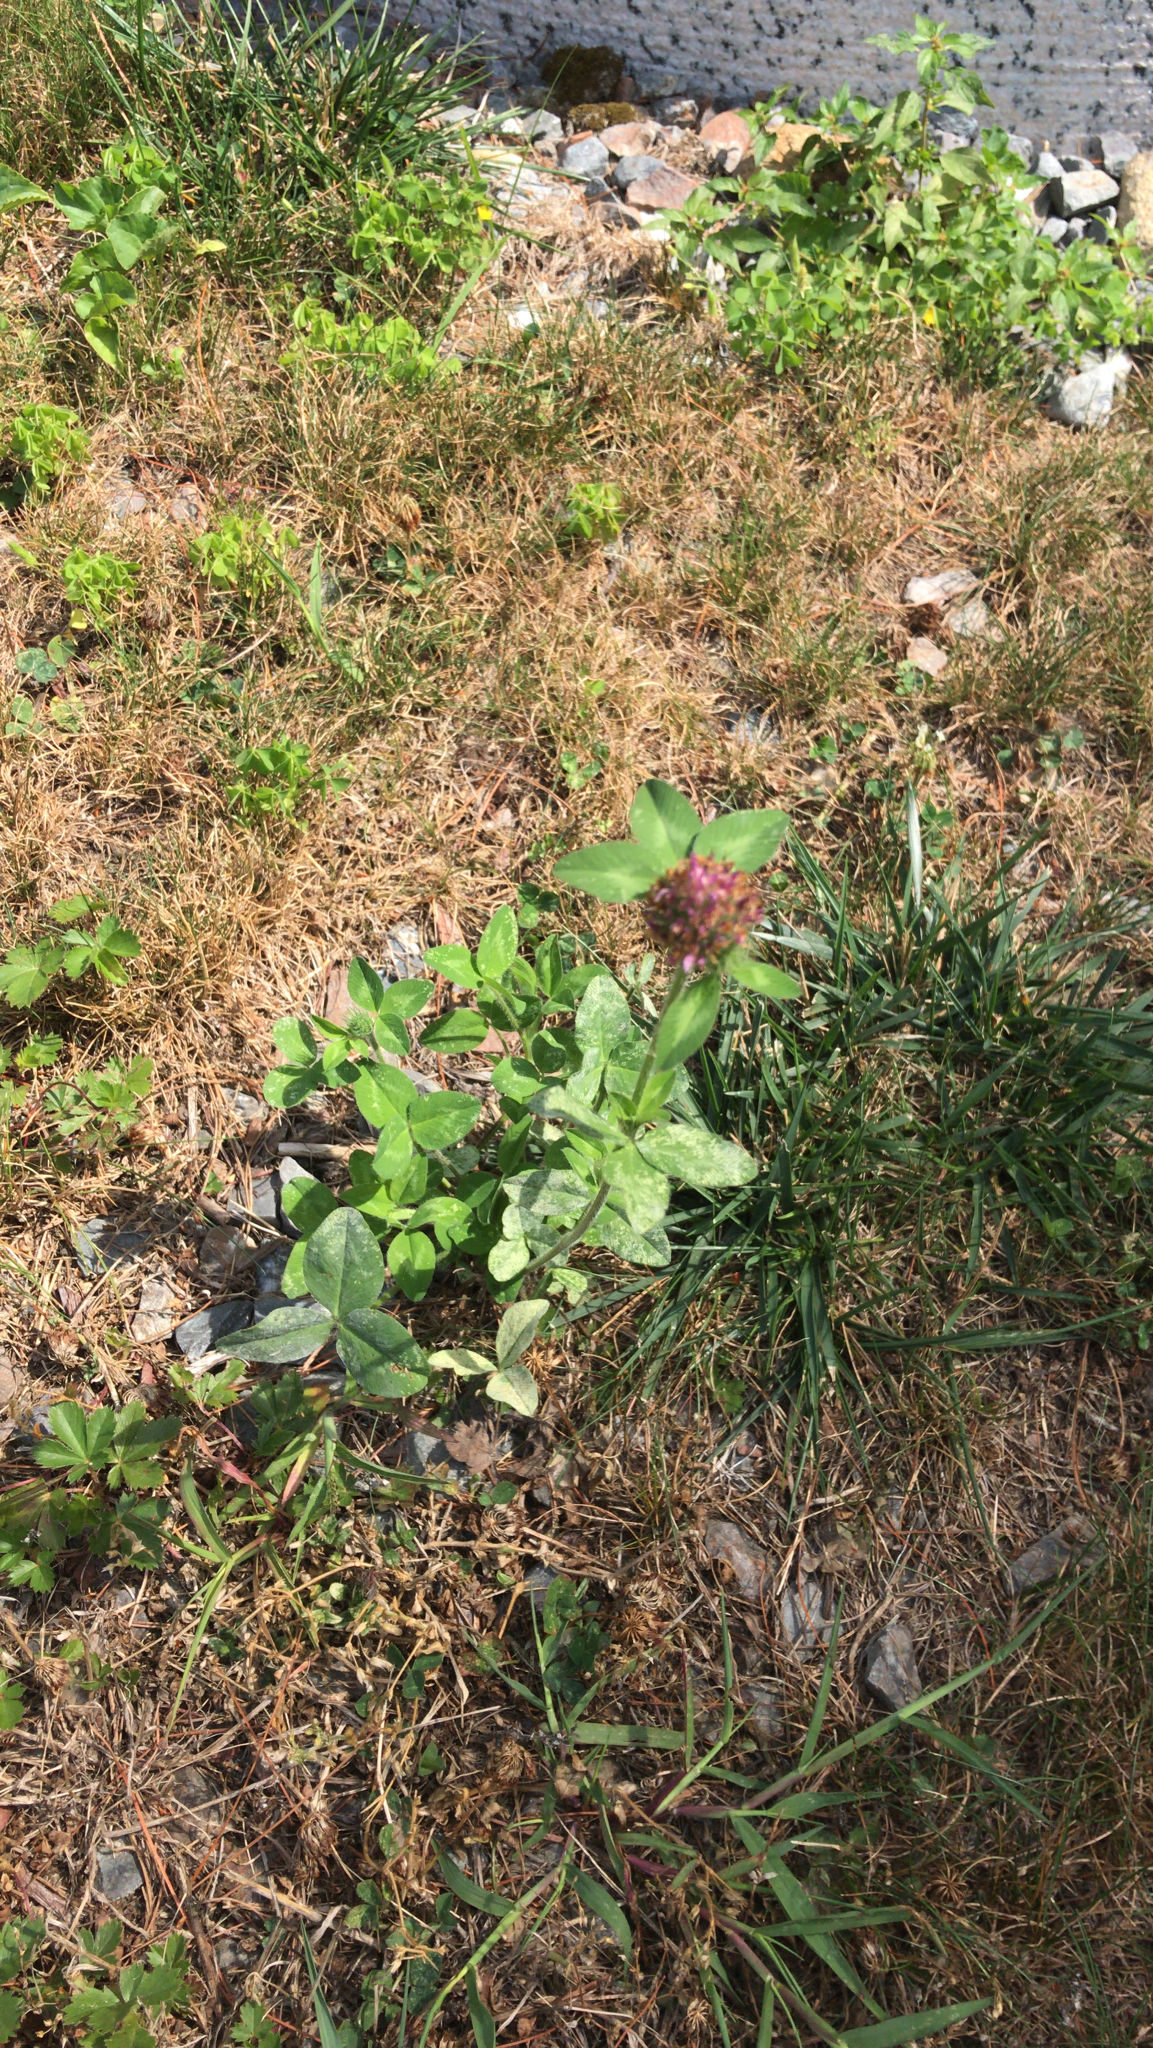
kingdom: Plantae
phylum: Tracheophyta
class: Magnoliopsida
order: Fabales
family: Fabaceae
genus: Trifolium
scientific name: Trifolium pratense
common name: Red clover
